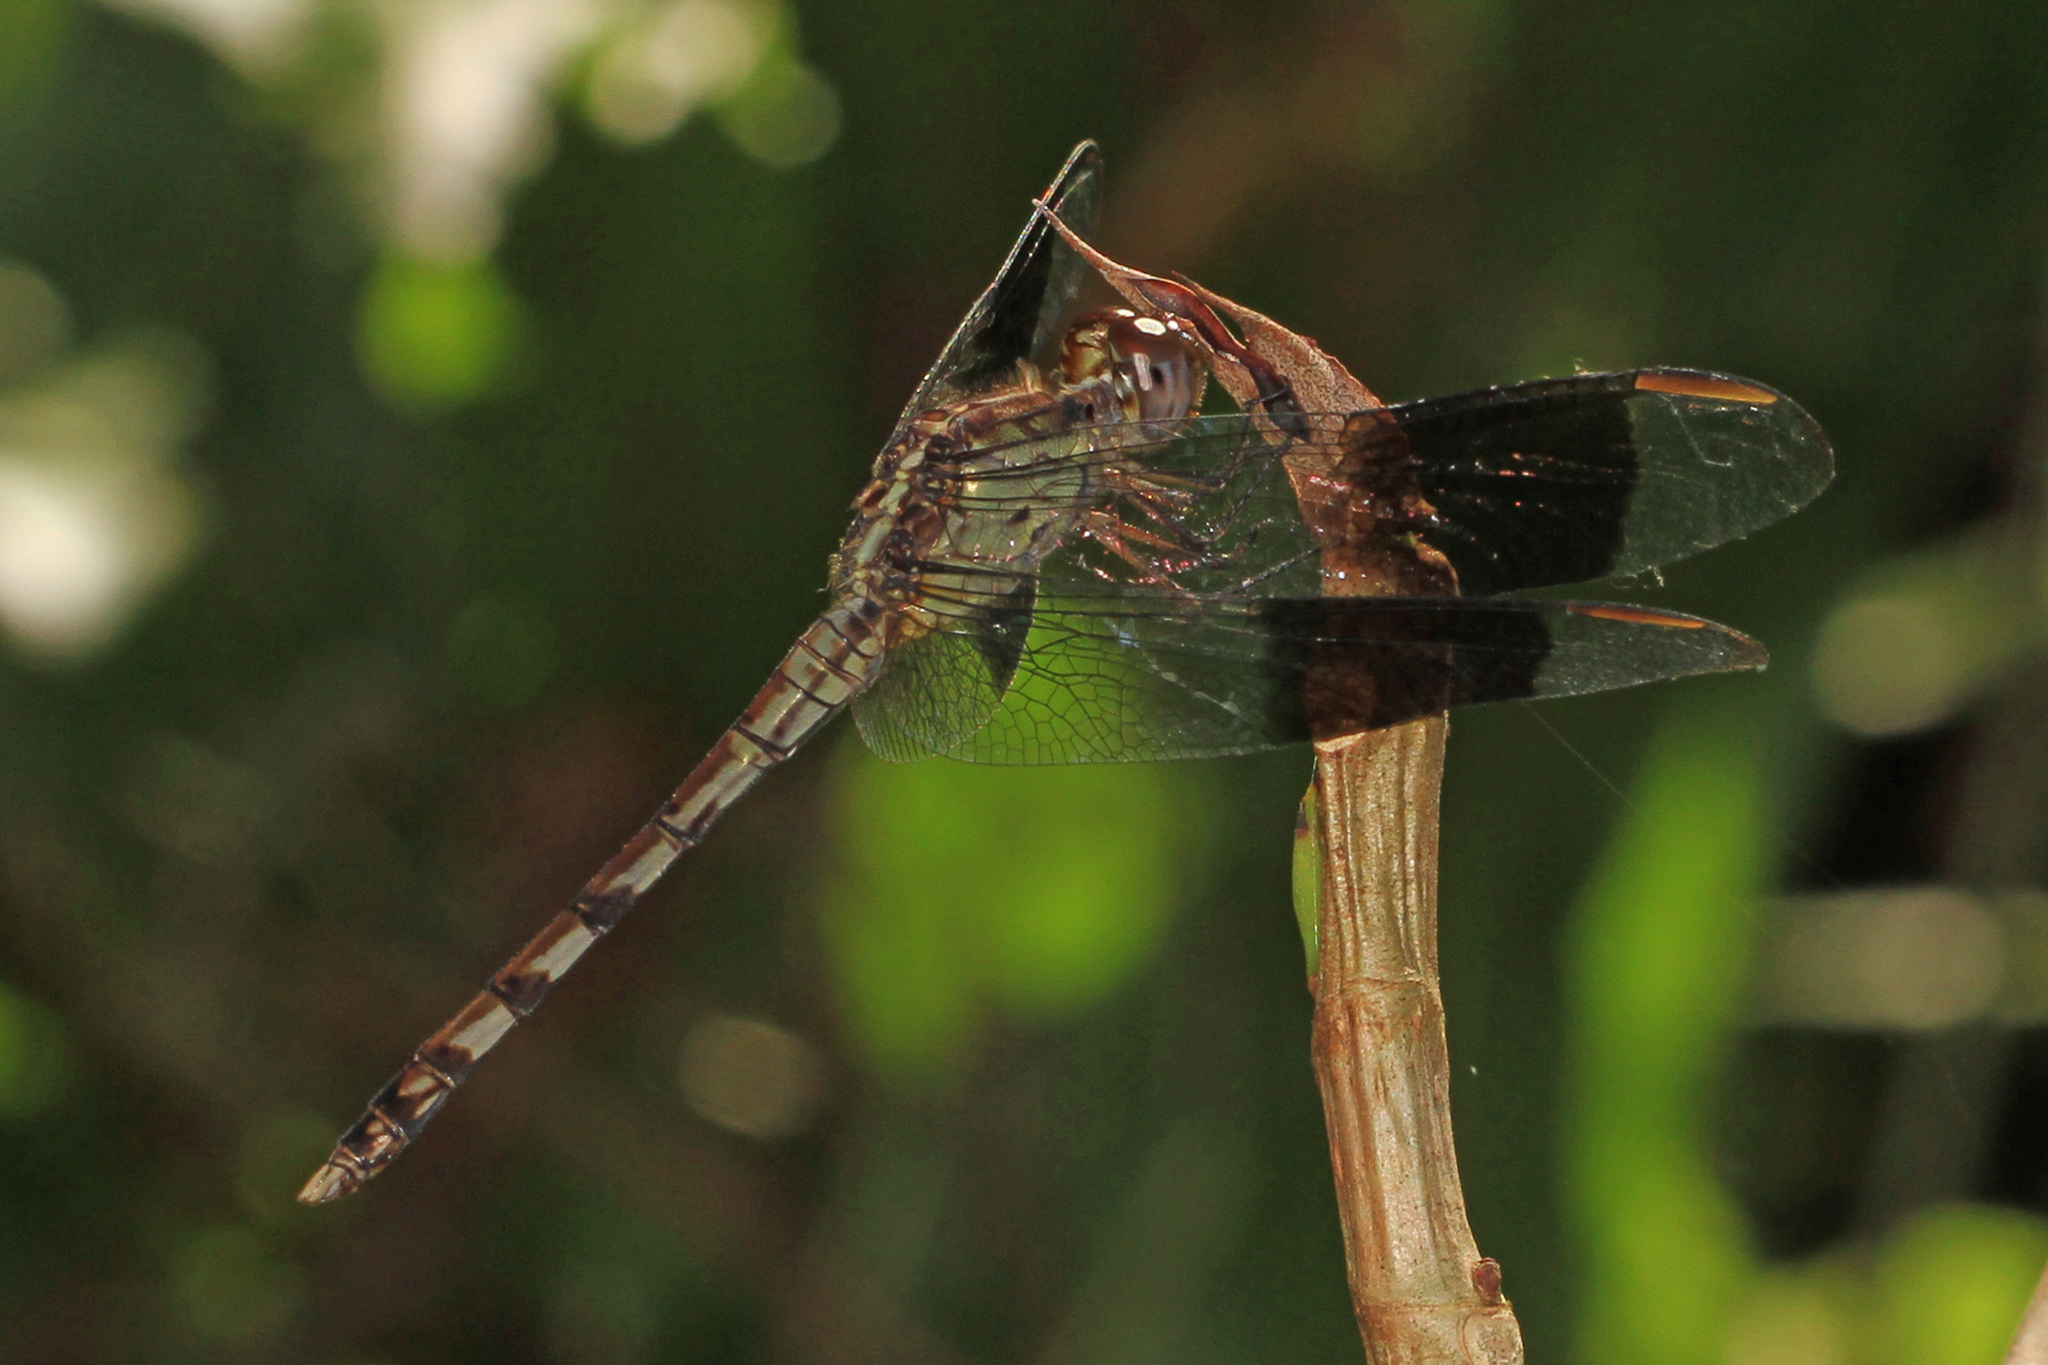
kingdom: Animalia
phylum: Arthropoda
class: Insecta
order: Odonata
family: Libellulidae
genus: Erythrodiplax
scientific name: Erythrodiplax umbrata
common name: Band-winged dragonlet
